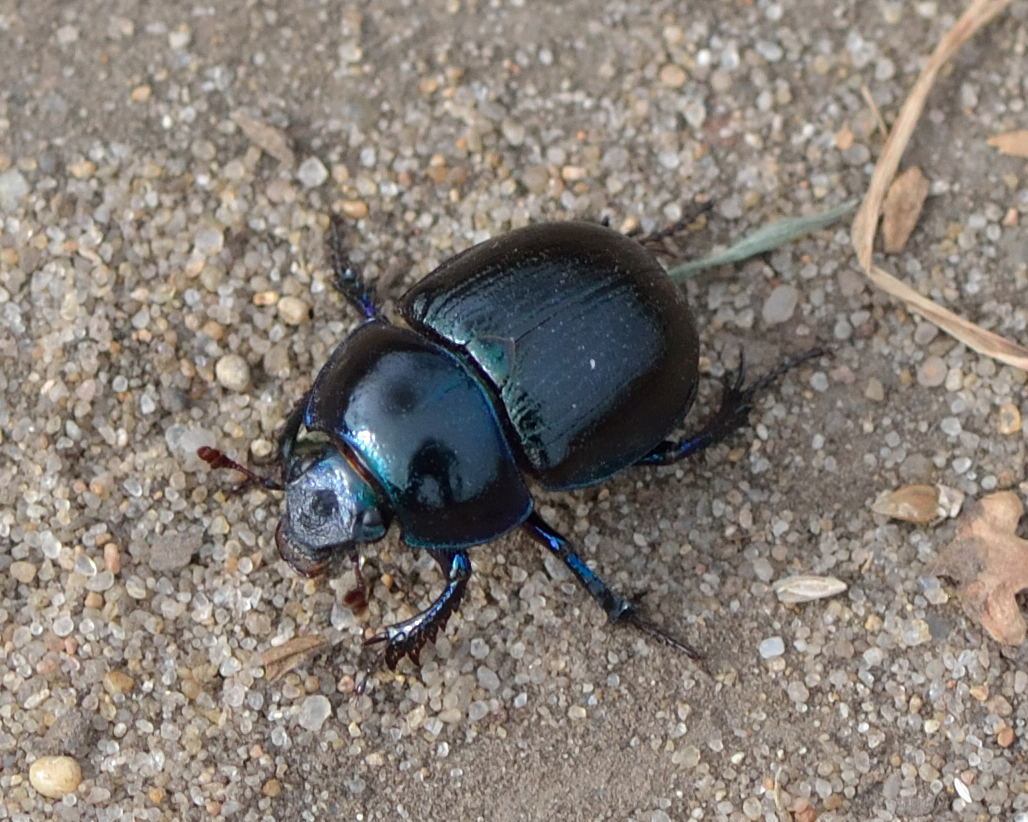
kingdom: Animalia
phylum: Arthropoda
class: Insecta
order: Coleoptera
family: Geotrupidae
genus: Anoplotrupes
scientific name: Anoplotrupes stercorosus
